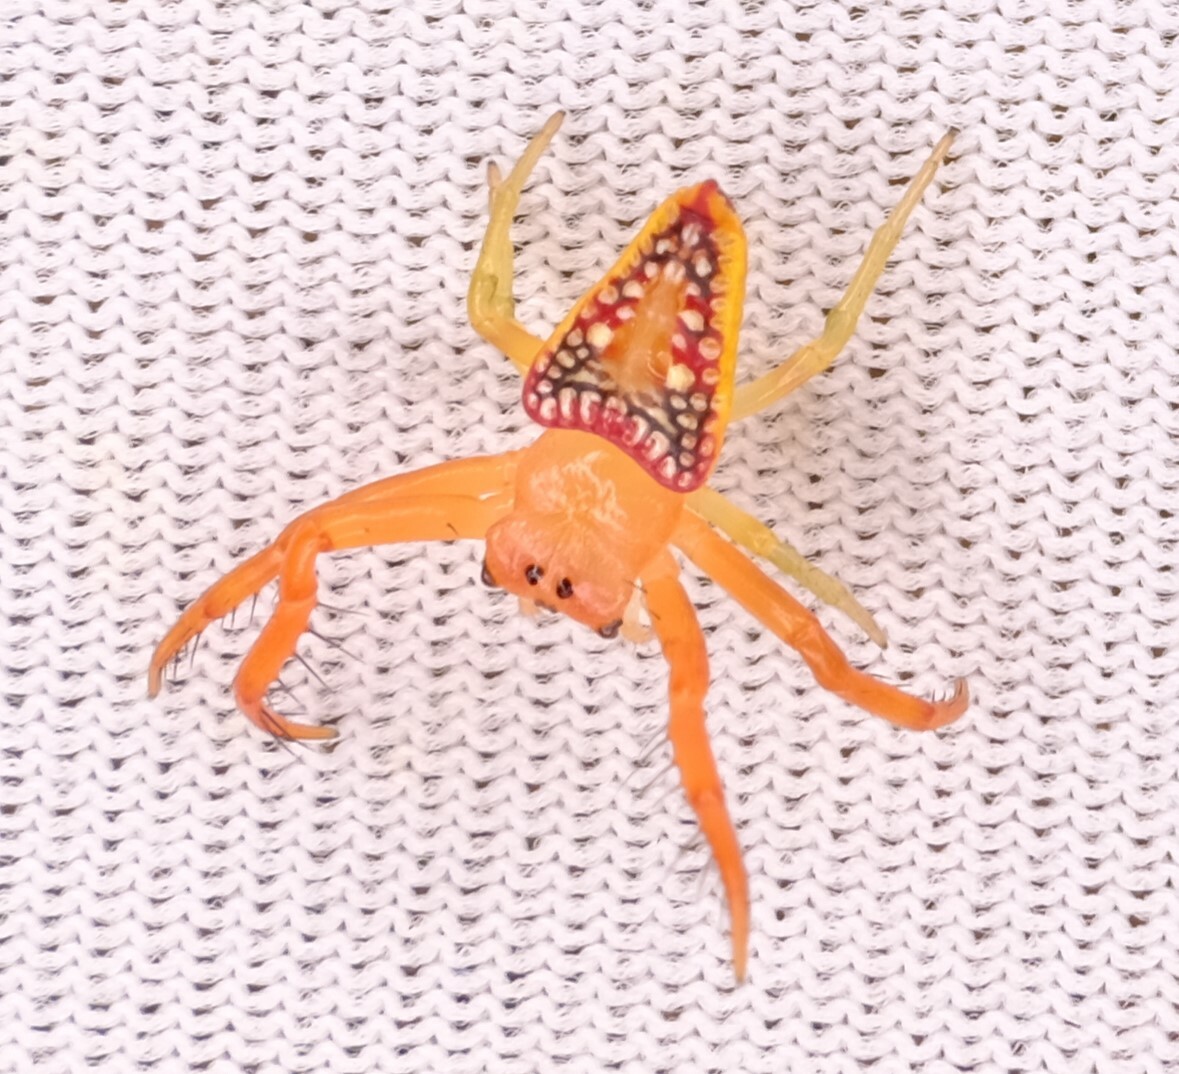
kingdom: Animalia
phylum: Arthropoda
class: Arachnida
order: Araneae
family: Arkyidae
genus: Arkys
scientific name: Arkys walckenaeri
